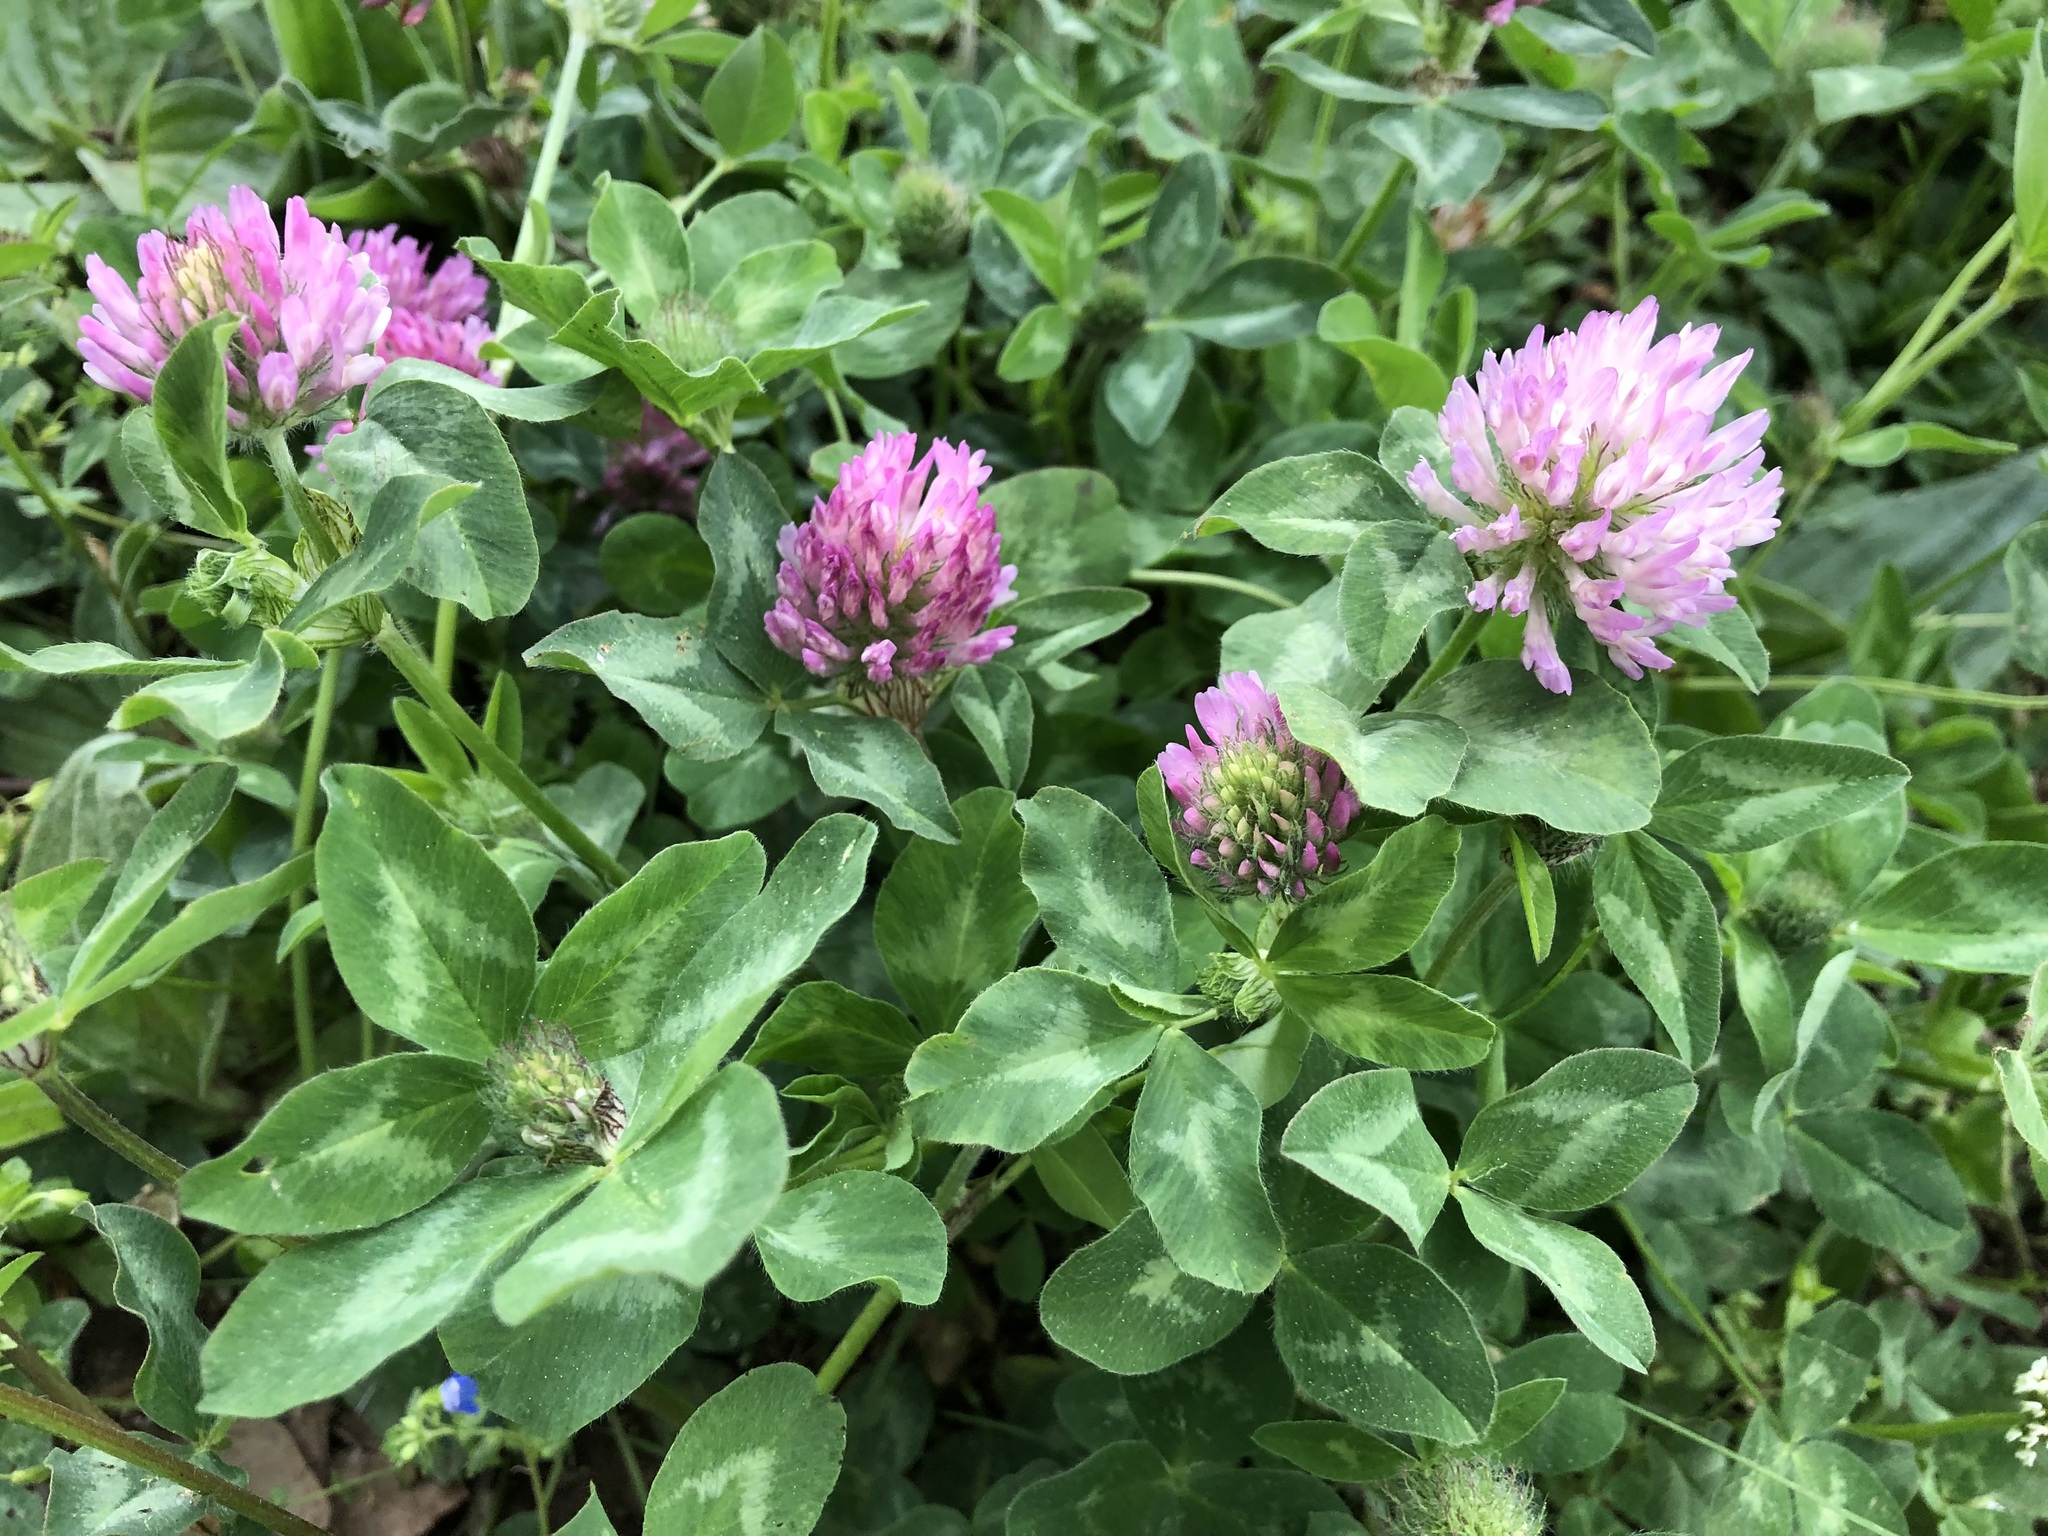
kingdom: Plantae
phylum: Tracheophyta
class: Magnoliopsida
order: Fabales
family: Fabaceae
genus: Trifolium
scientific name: Trifolium pratense
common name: Red clover
